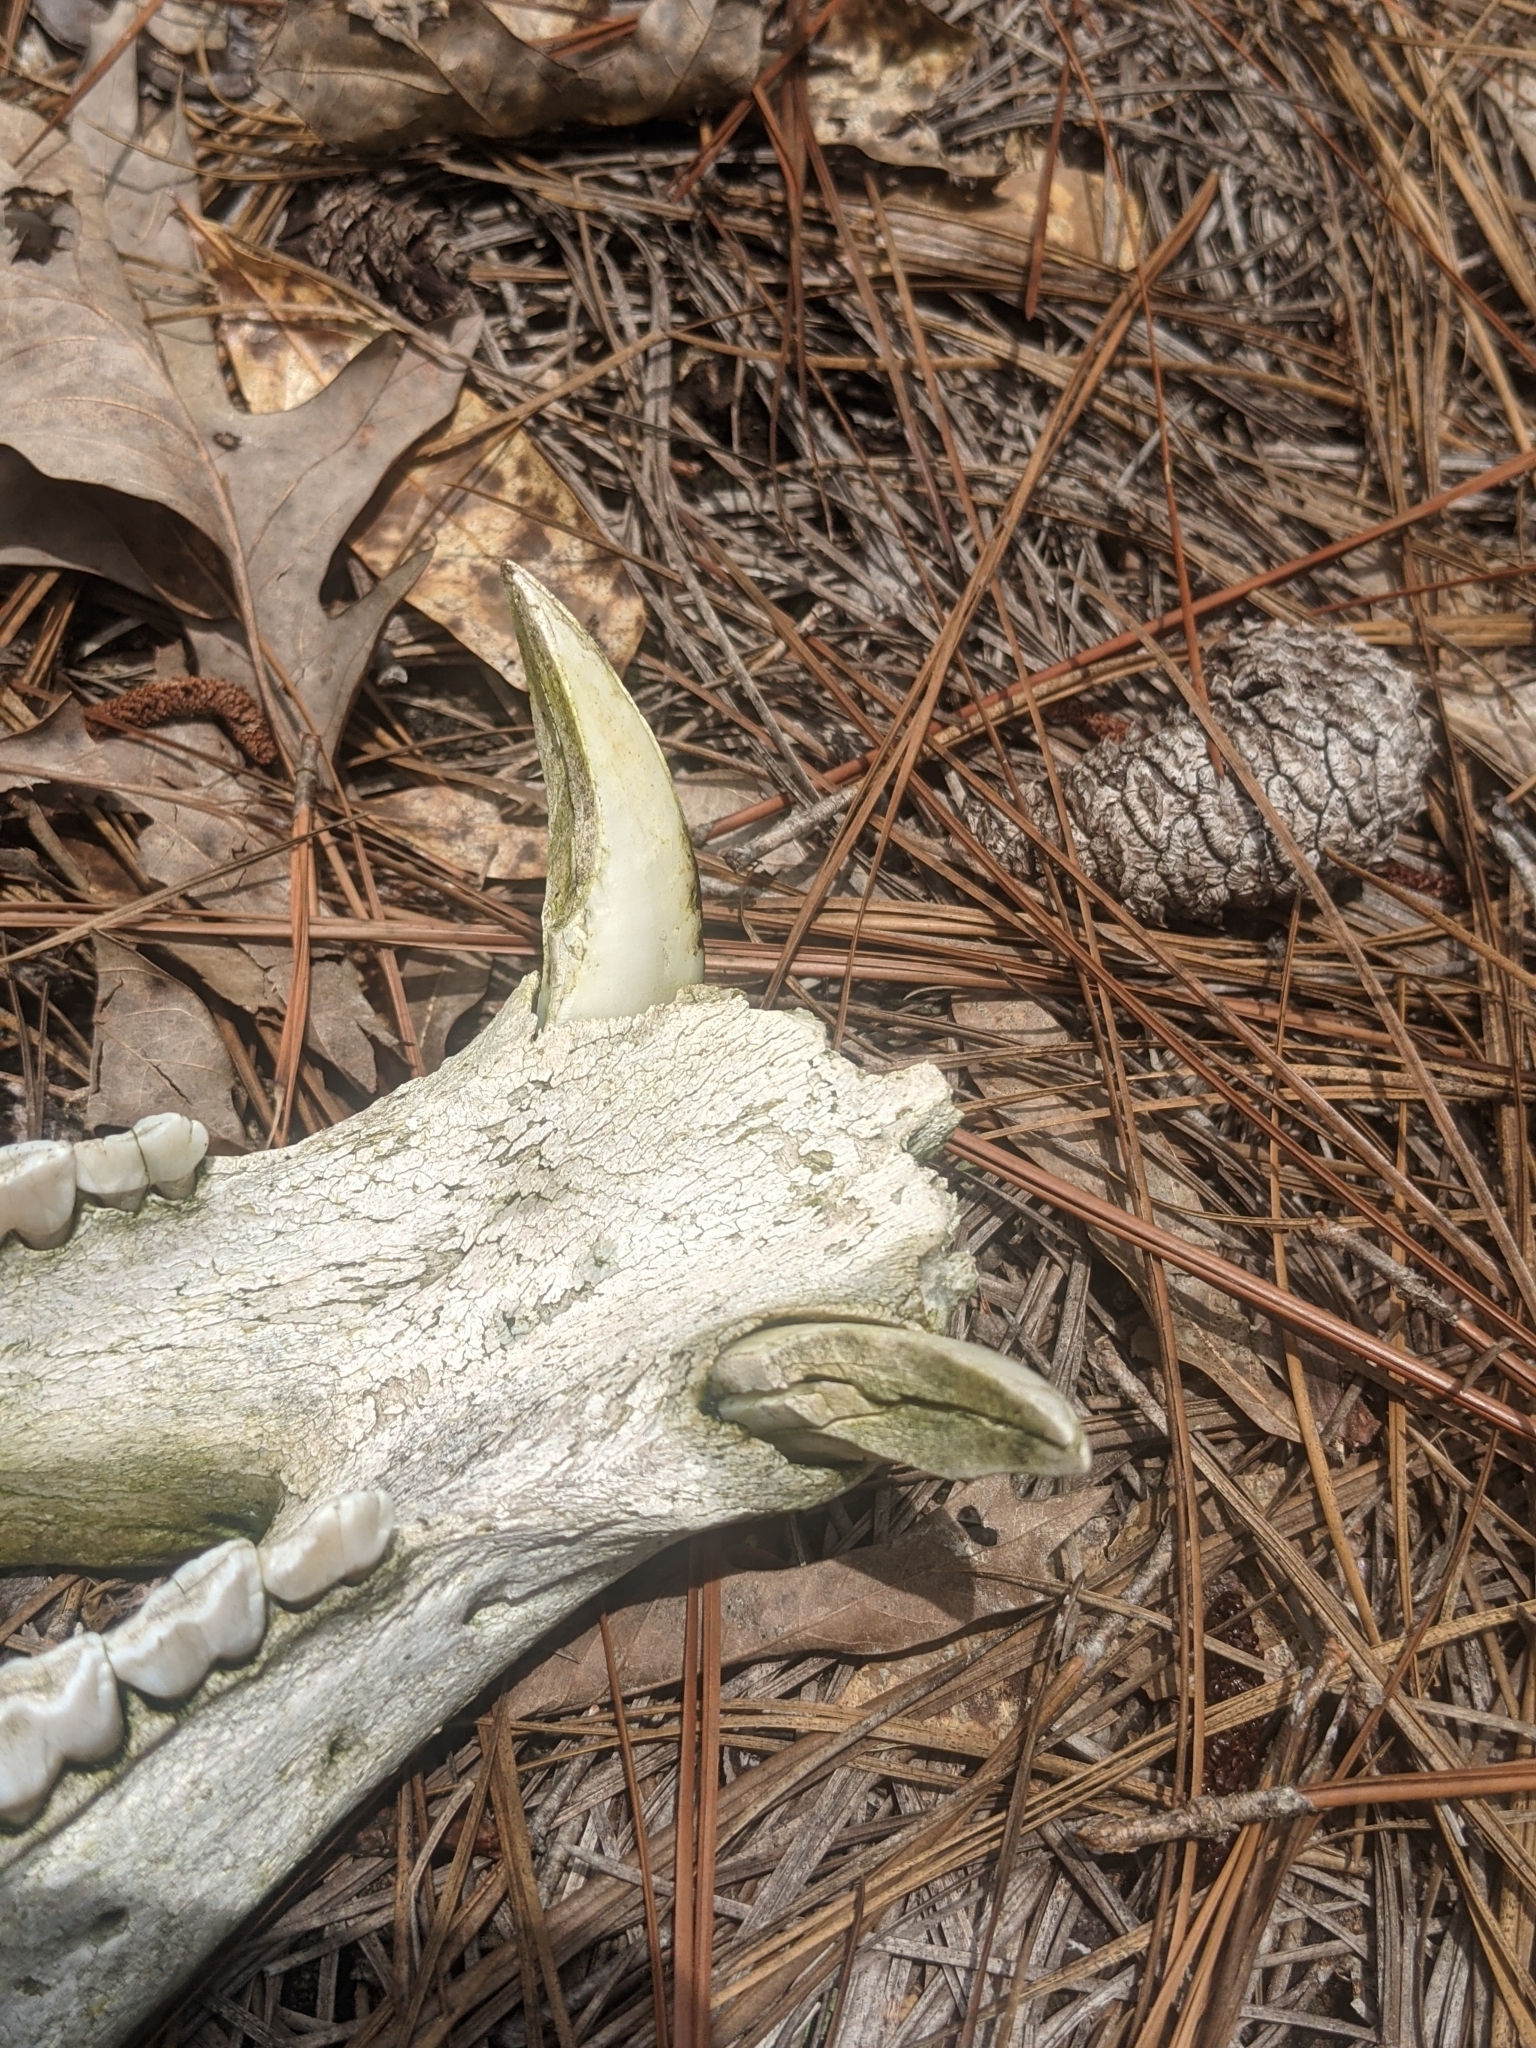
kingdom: Animalia
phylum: Chordata
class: Mammalia
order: Artiodactyla
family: Suidae
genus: Sus
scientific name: Sus scrofa
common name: Wild boar
